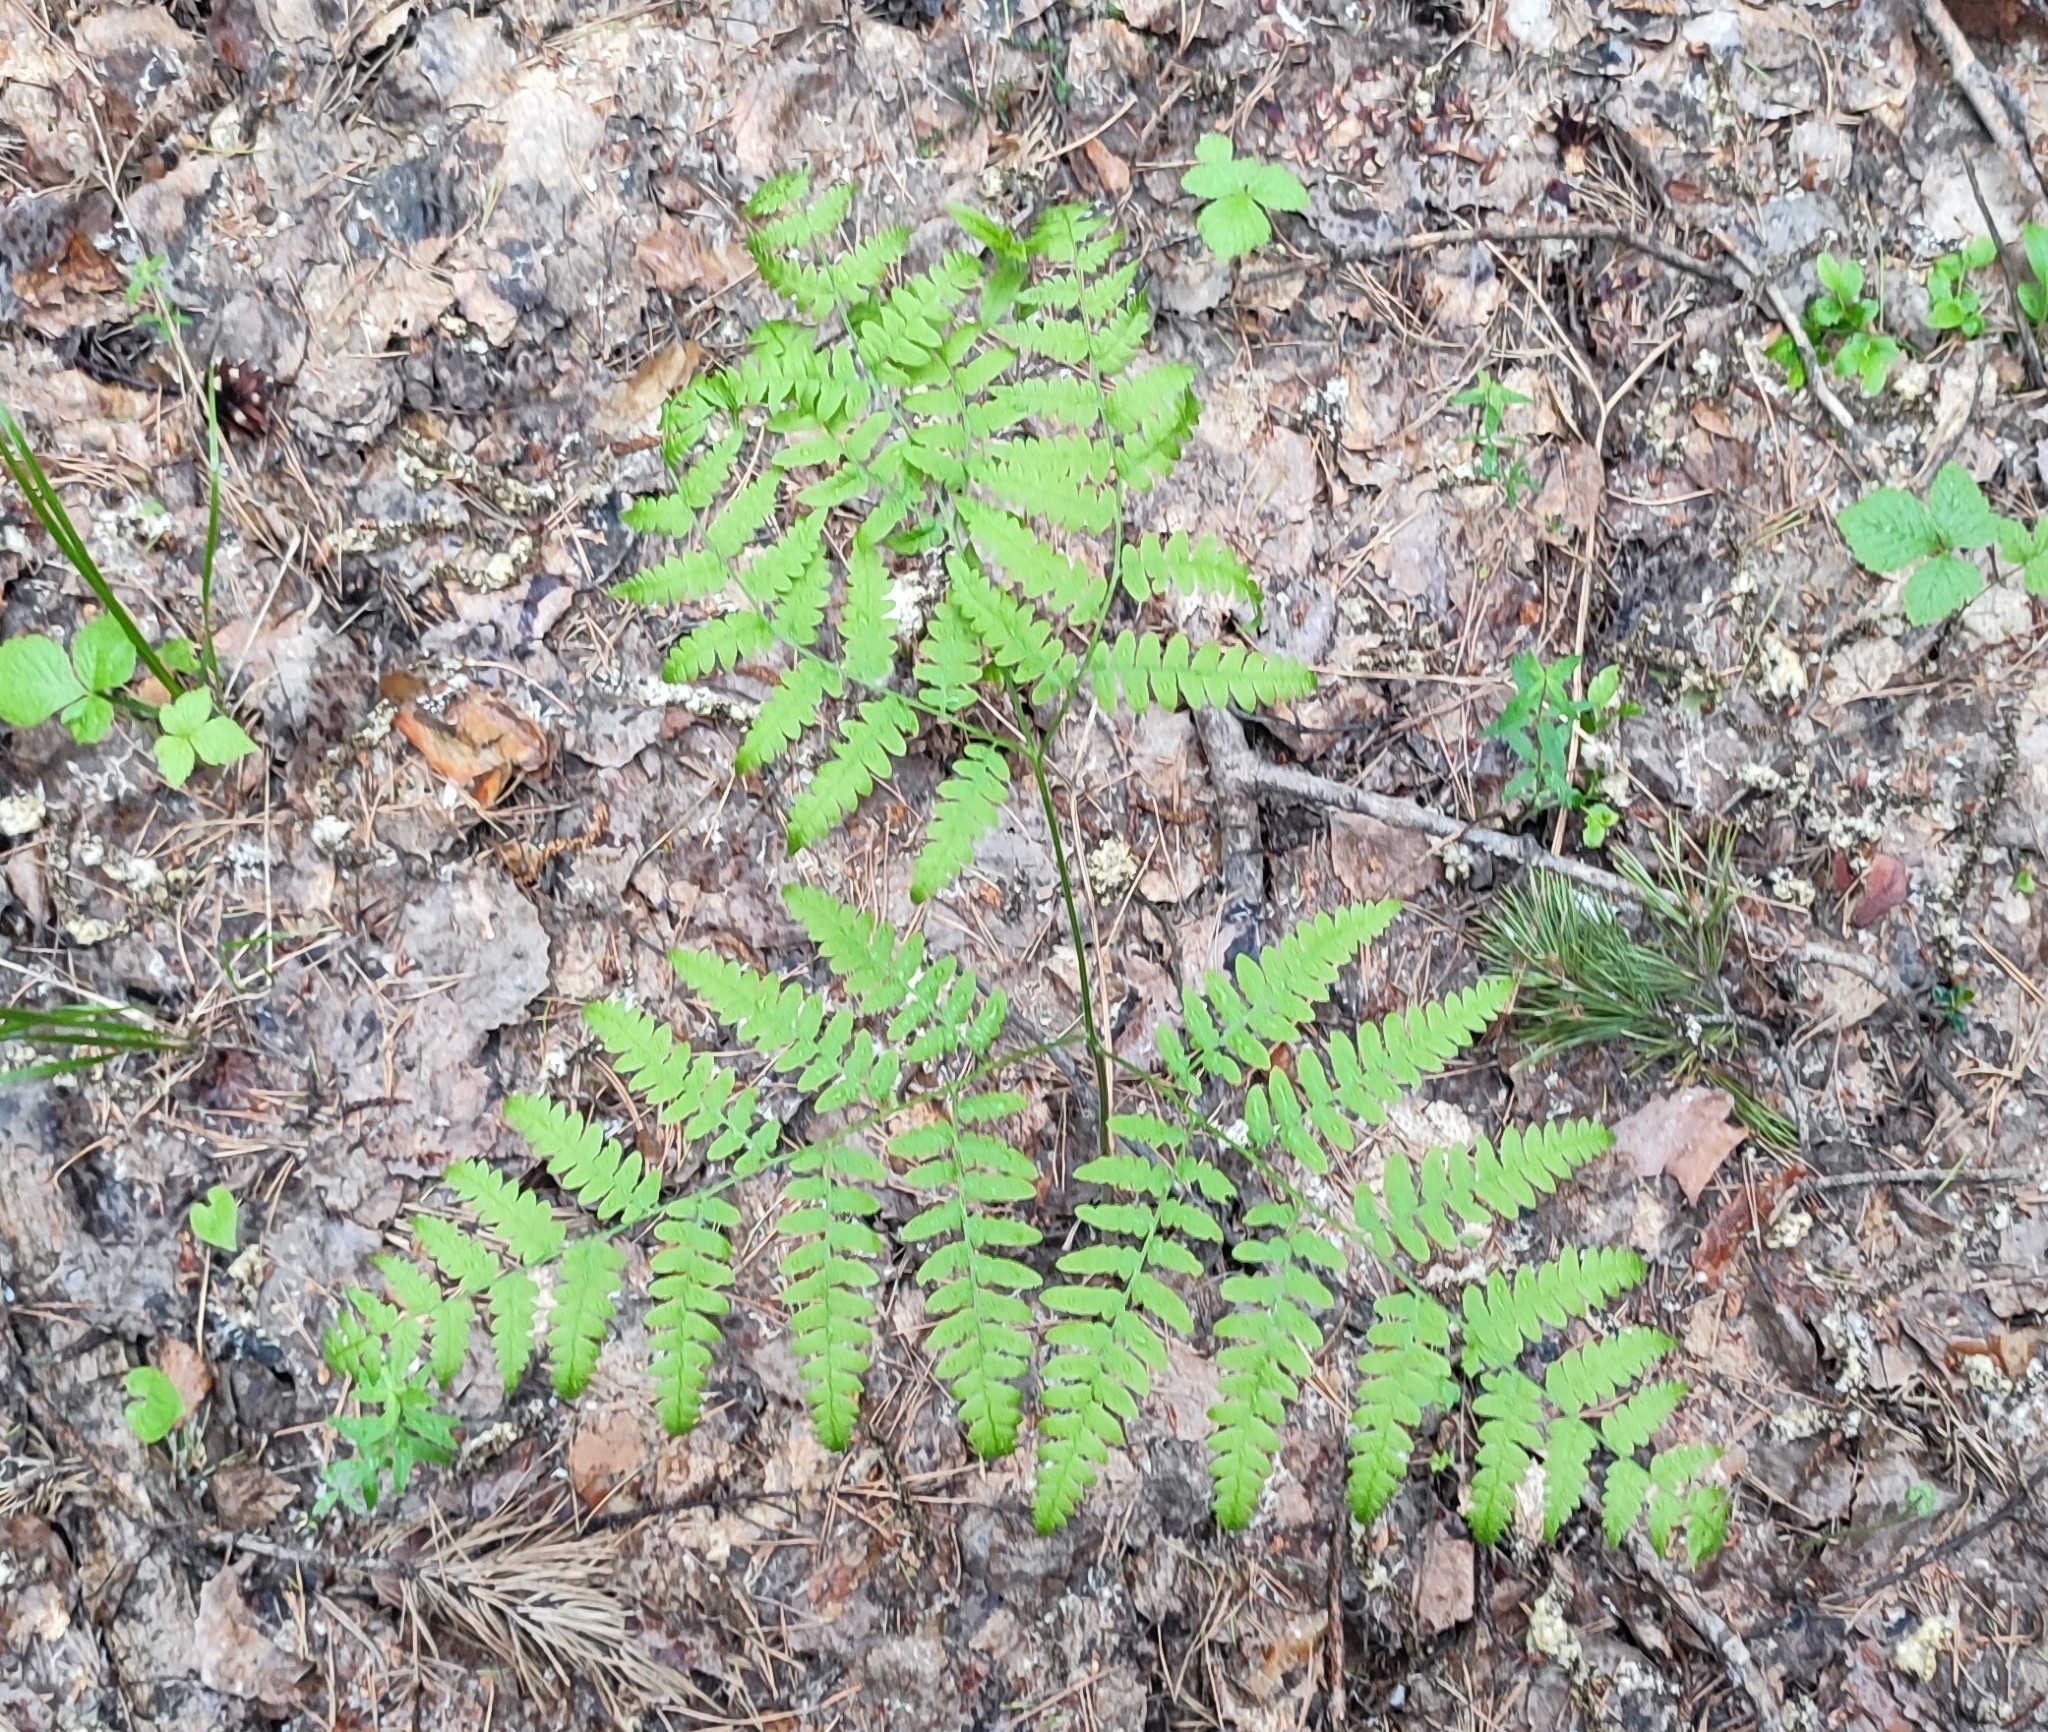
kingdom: Plantae
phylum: Tracheophyta
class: Polypodiopsida
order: Polypodiales
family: Dennstaedtiaceae
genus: Pteridium
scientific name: Pteridium aquilinum
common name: Bracken
